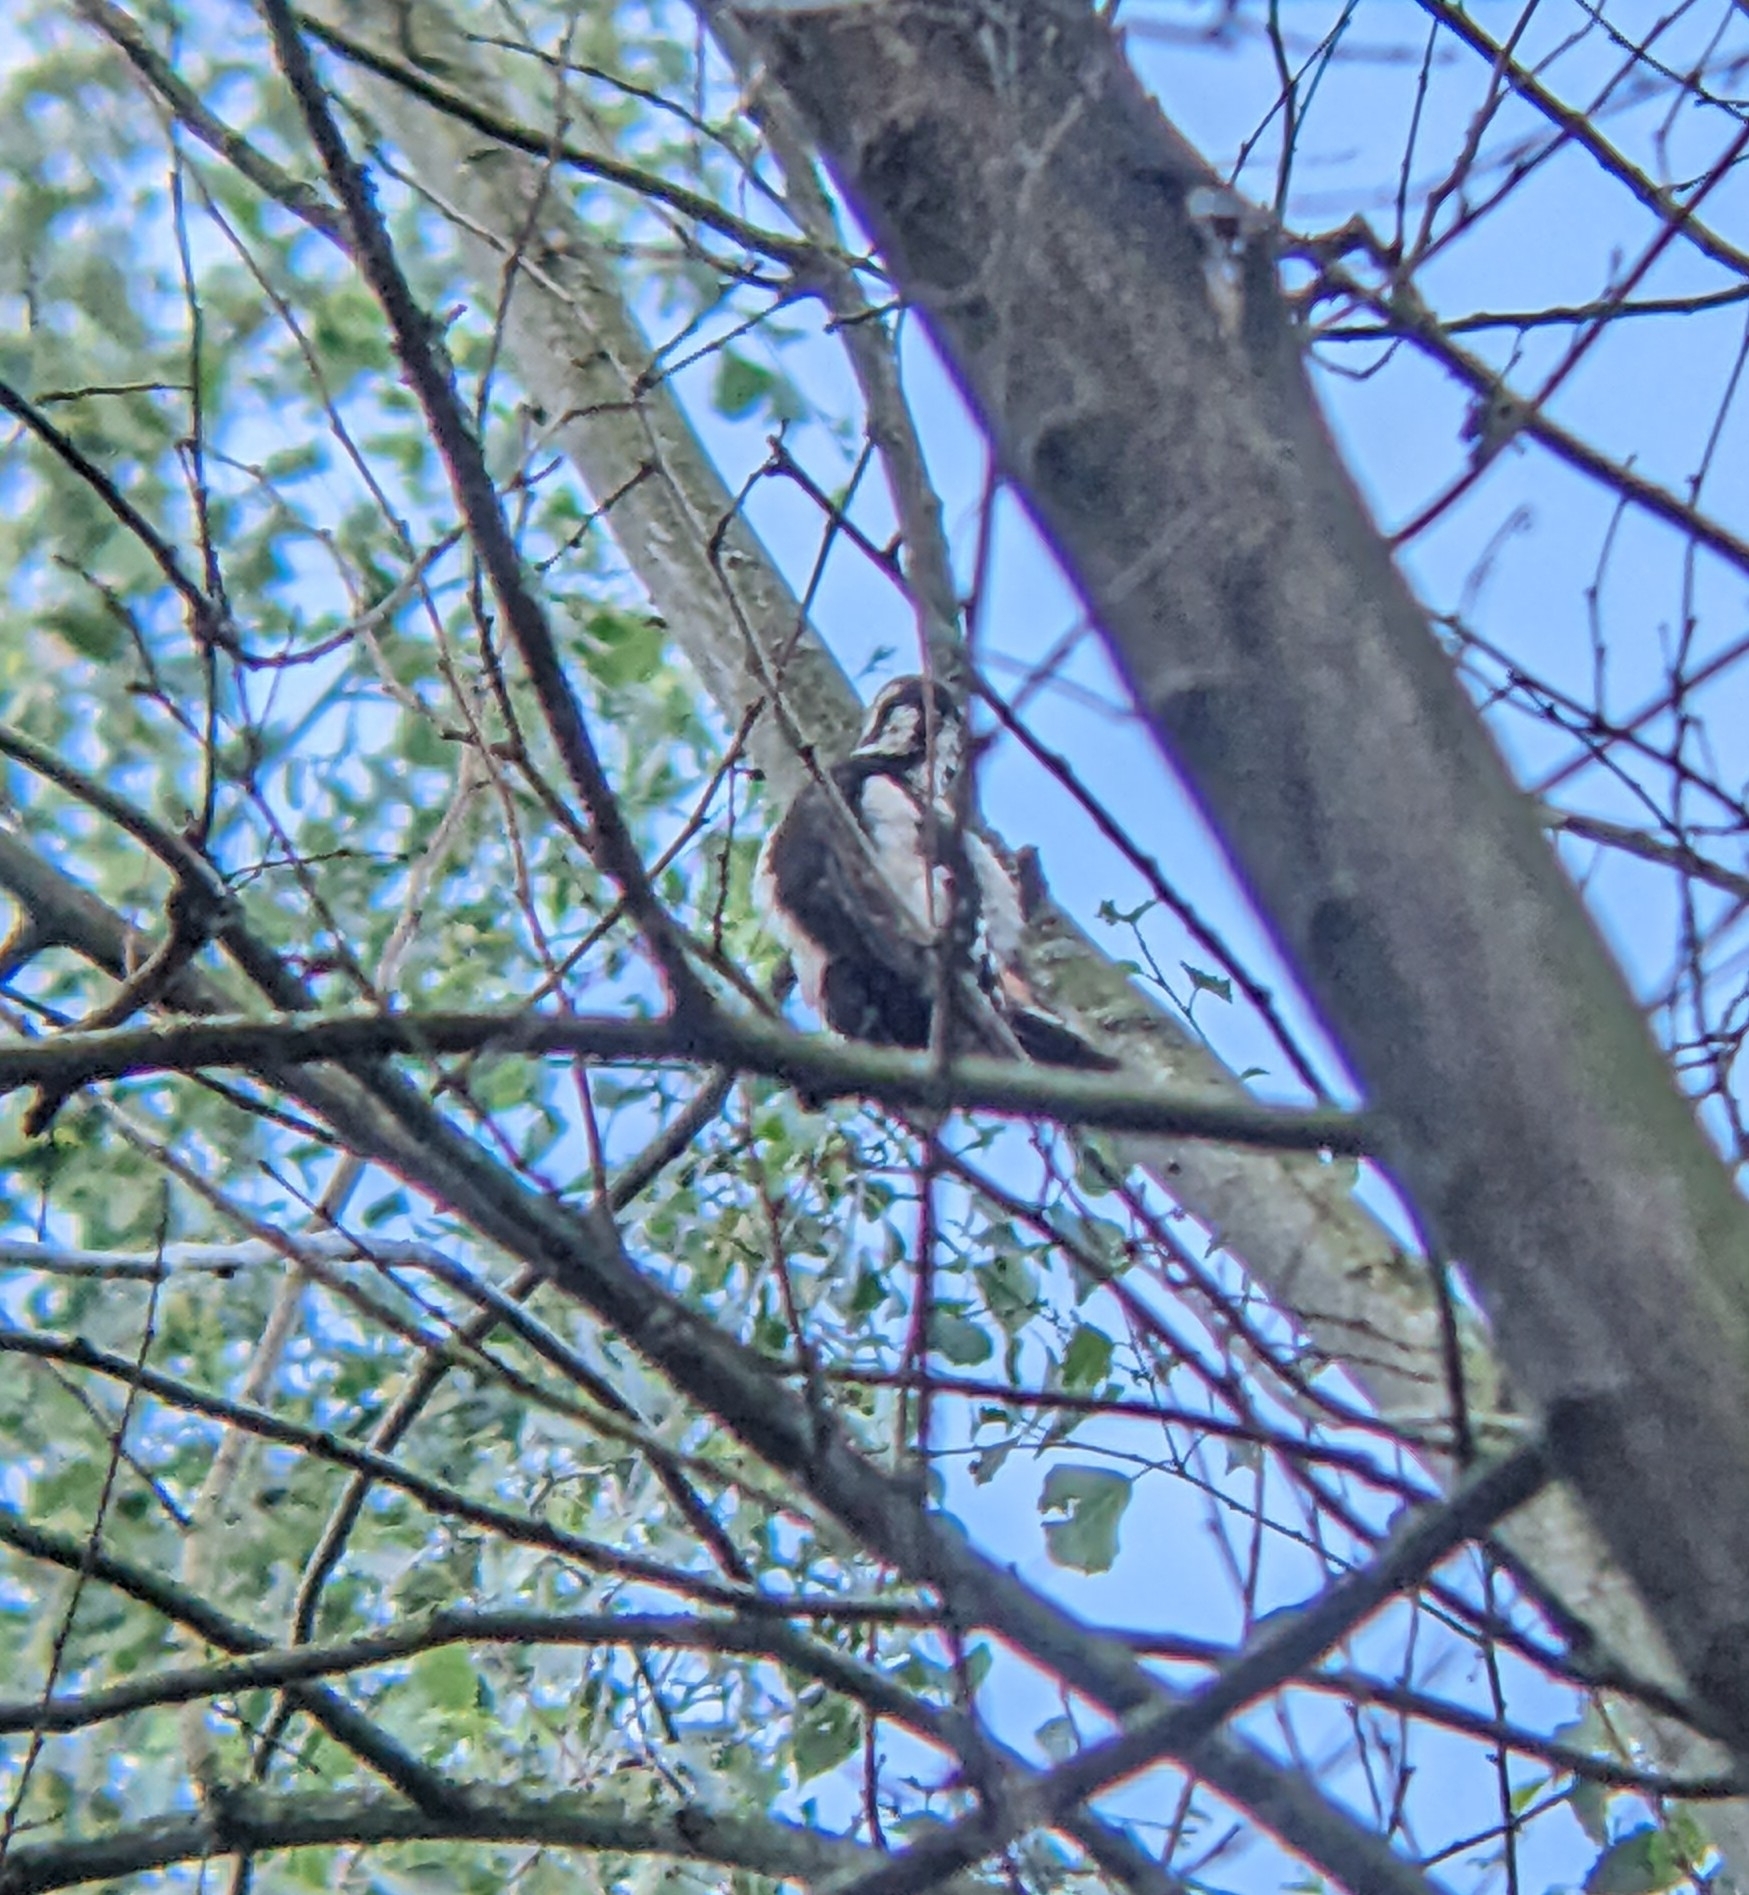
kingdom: Animalia
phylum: Chordata
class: Aves
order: Piciformes
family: Picidae
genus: Dendrocopos
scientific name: Dendrocopos major
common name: Great spotted woodpecker
